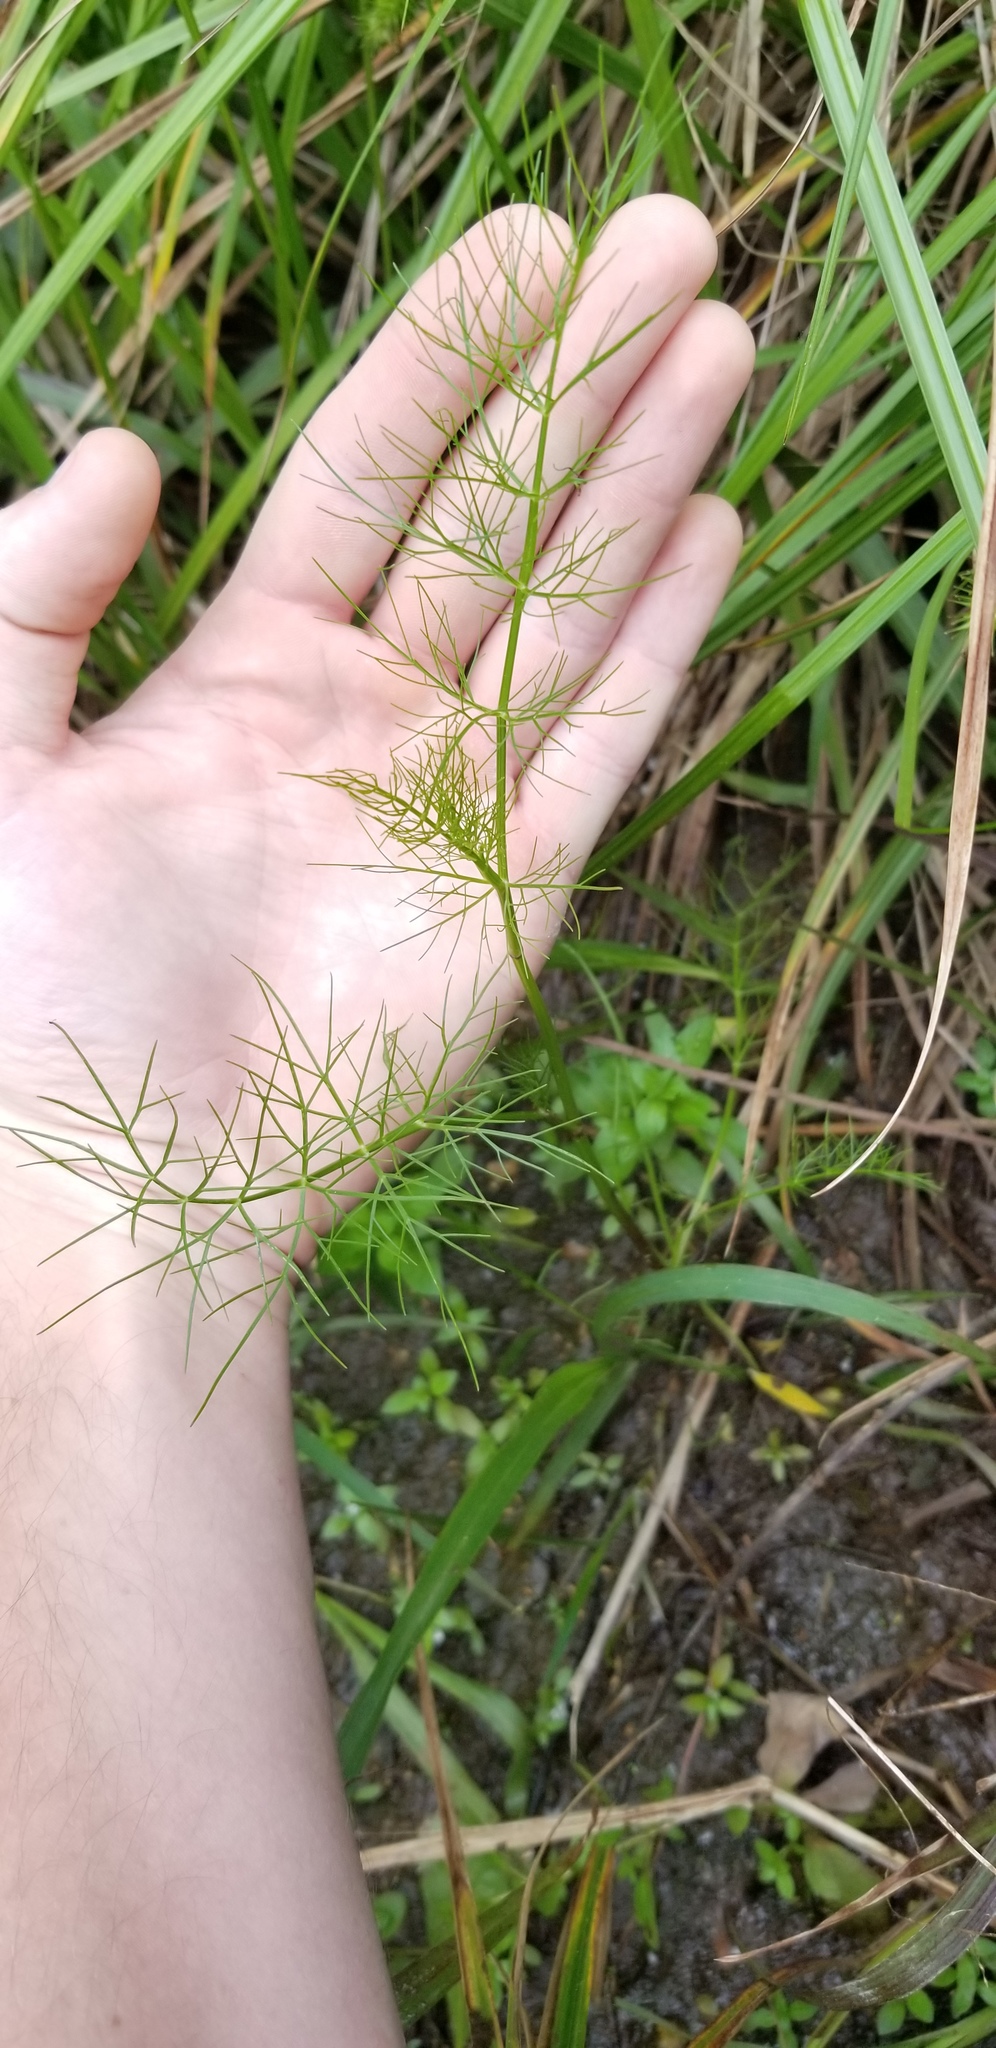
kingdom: Plantae
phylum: Tracheophyta
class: Magnoliopsida
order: Apiales
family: Apiaceae
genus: Ptilimnium
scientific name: Ptilimnium capillaceum
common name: Herbwilliam
